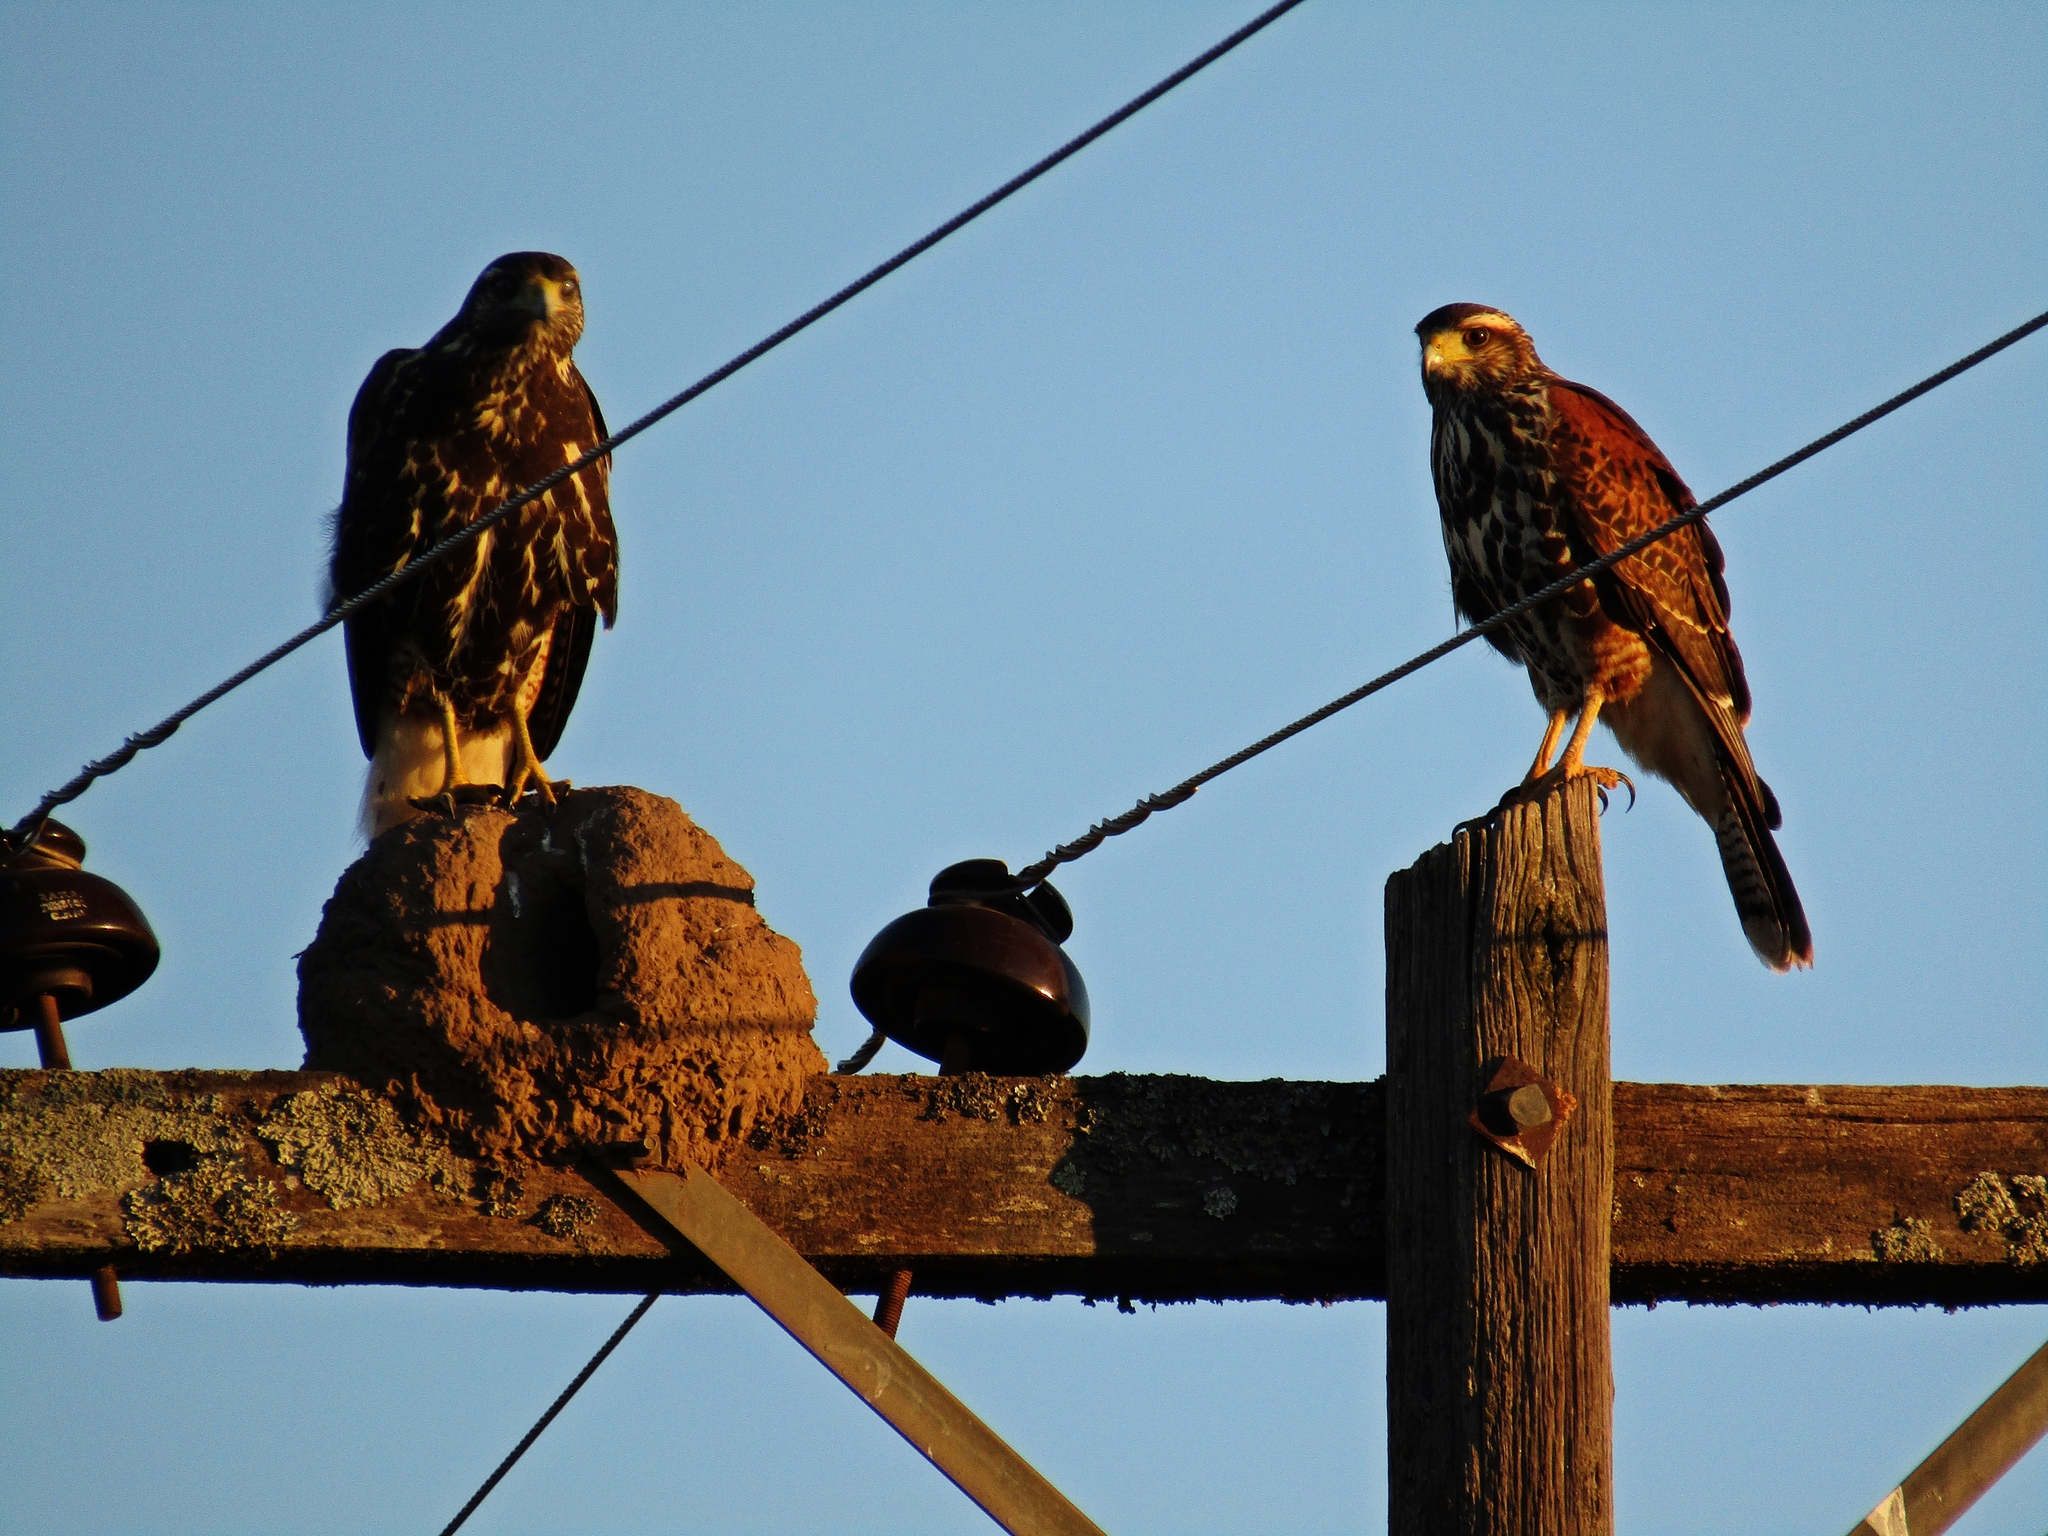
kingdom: Animalia
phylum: Chordata
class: Aves
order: Accipitriformes
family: Accipitridae
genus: Parabuteo
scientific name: Parabuteo unicinctus
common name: Harris's hawk
